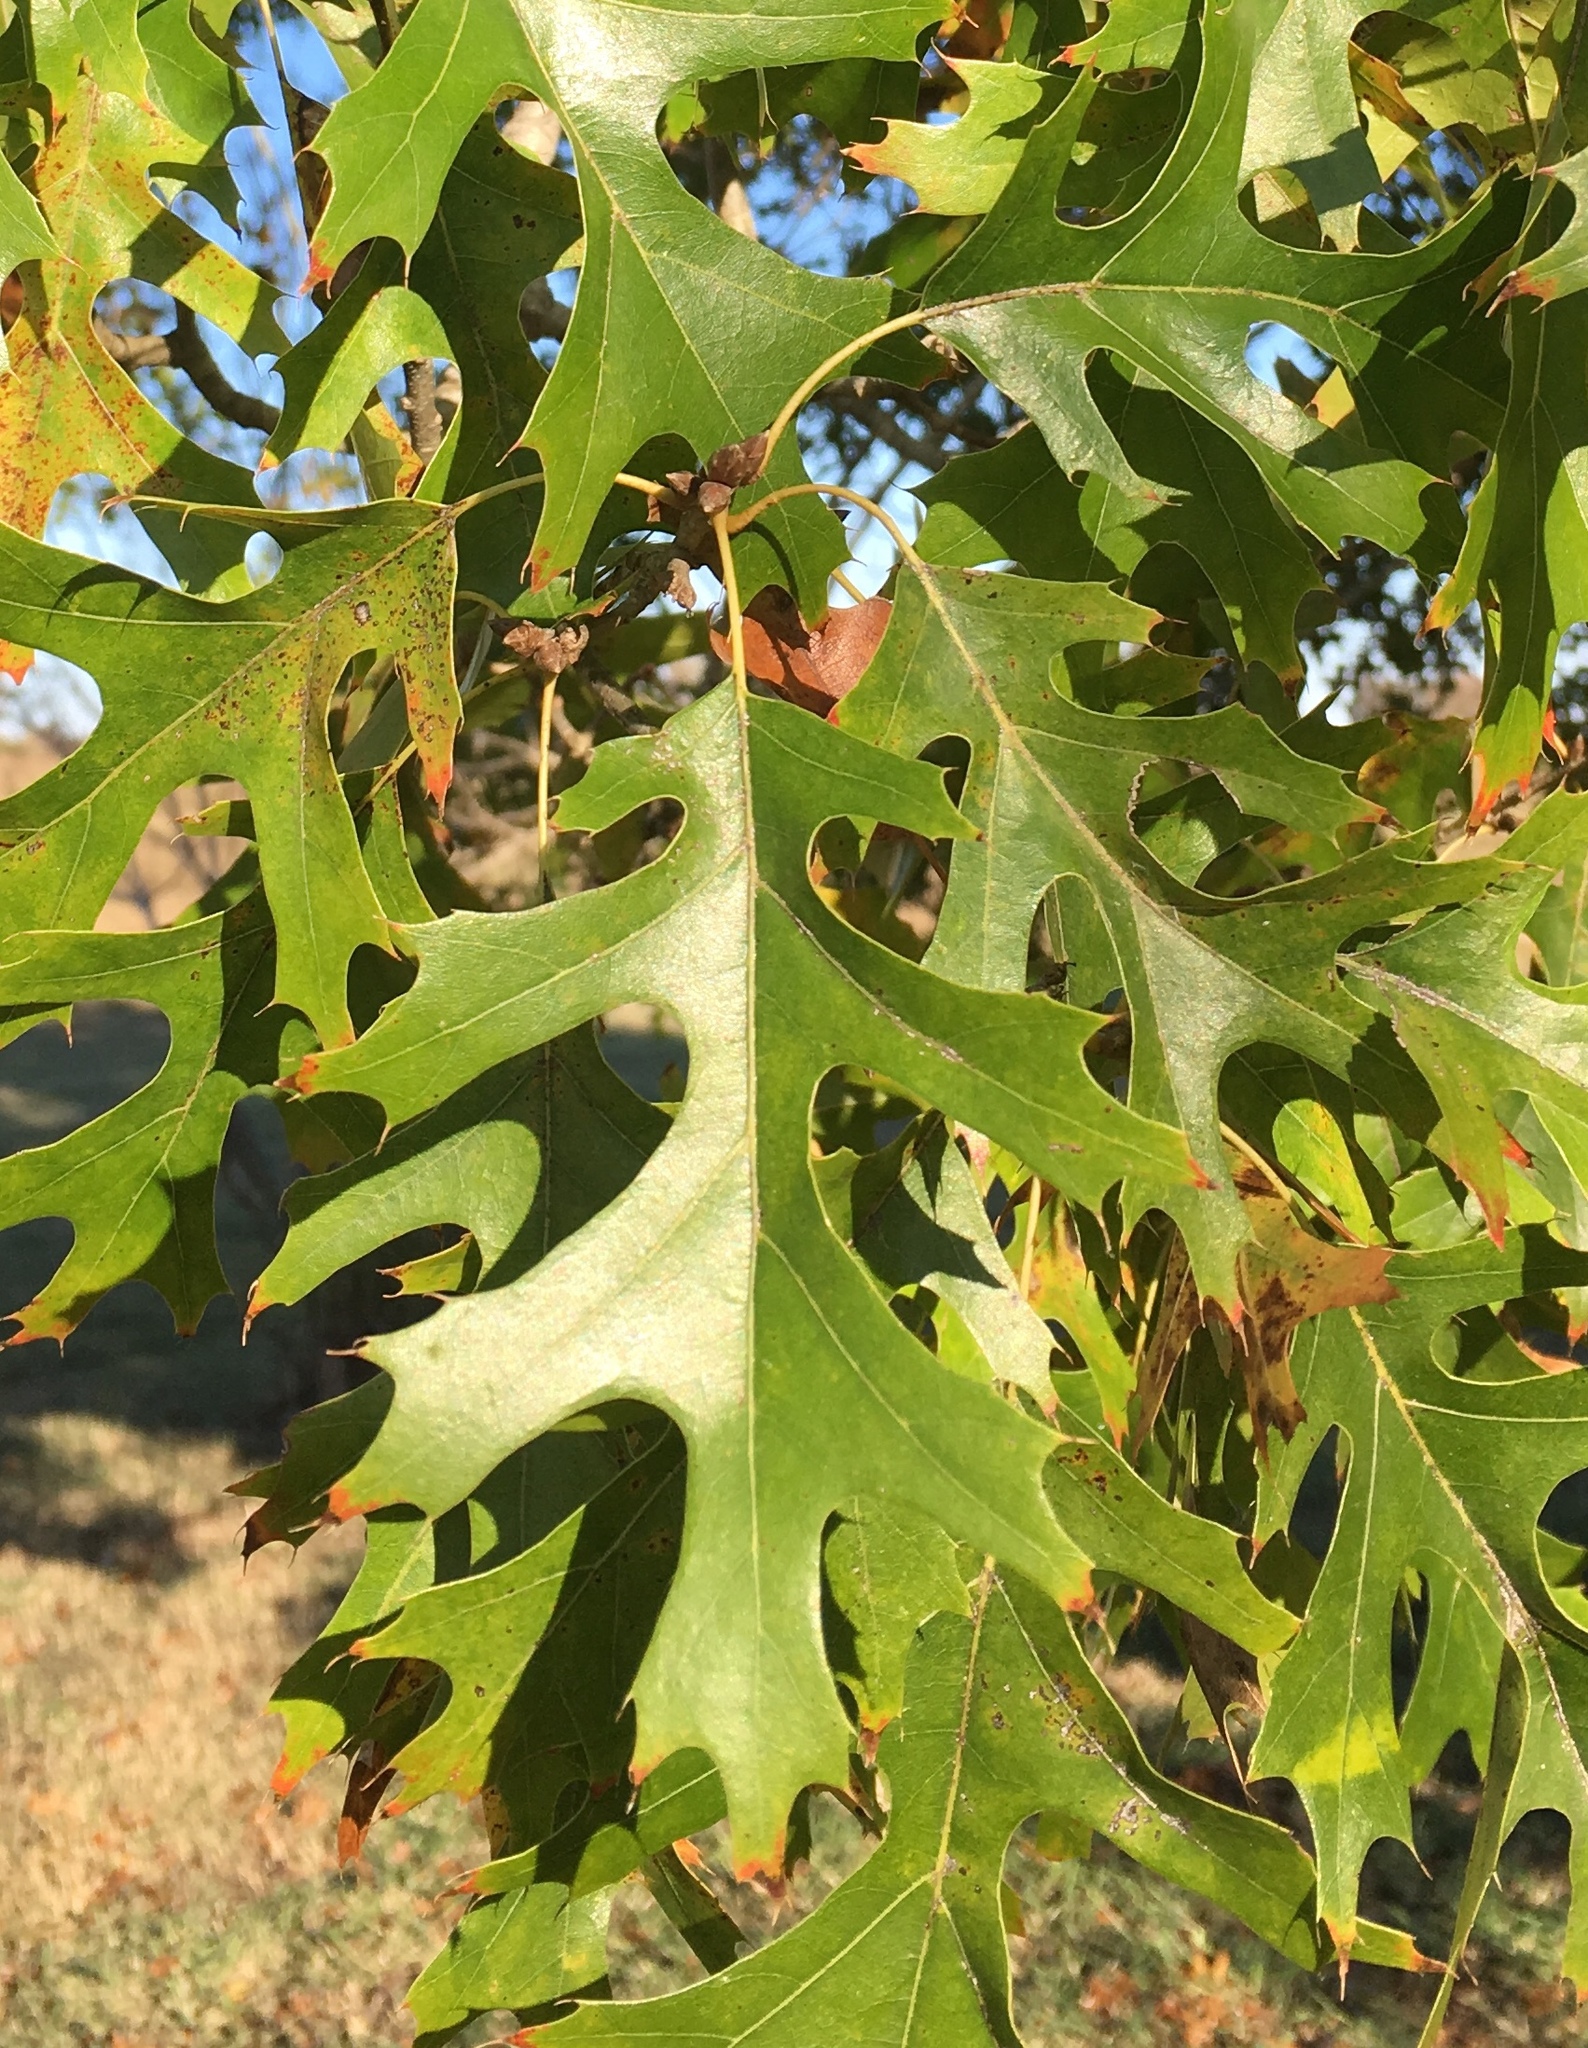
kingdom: Plantae
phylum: Tracheophyta
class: Magnoliopsida
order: Fagales
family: Fagaceae
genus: Quercus
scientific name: Quercus shumardii
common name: Shumard oak
